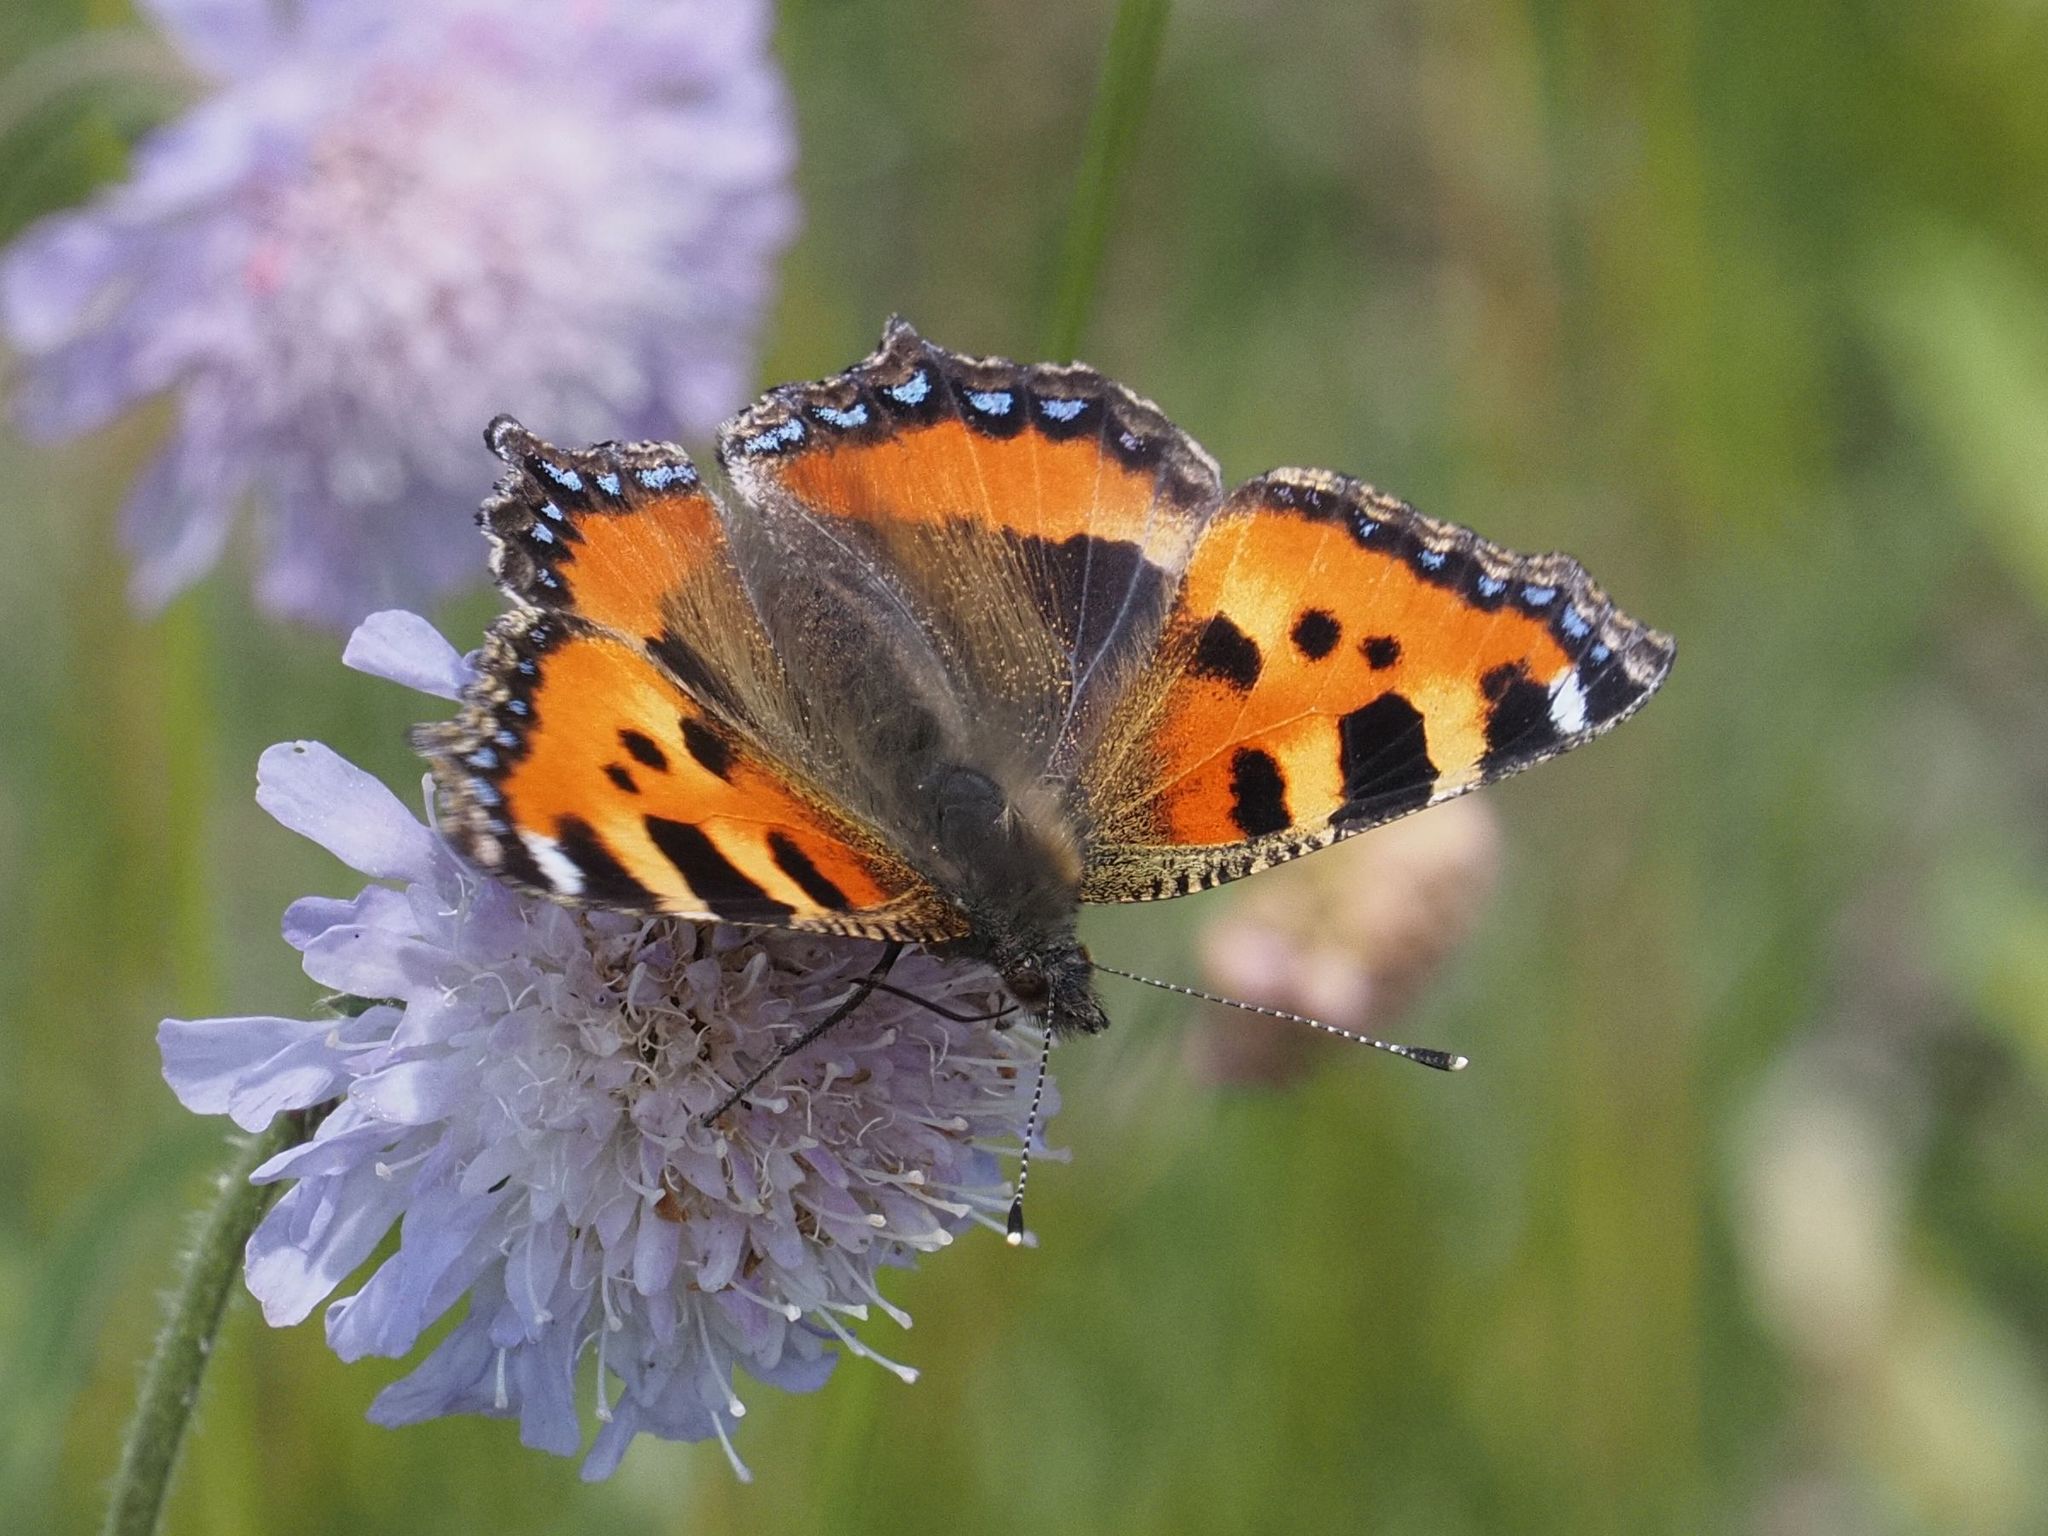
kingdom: Animalia
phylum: Arthropoda
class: Insecta
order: Lepidoptera
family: Nymphalidae
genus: Aglais
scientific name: Aglais urticae
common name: Small tortoiseshell
